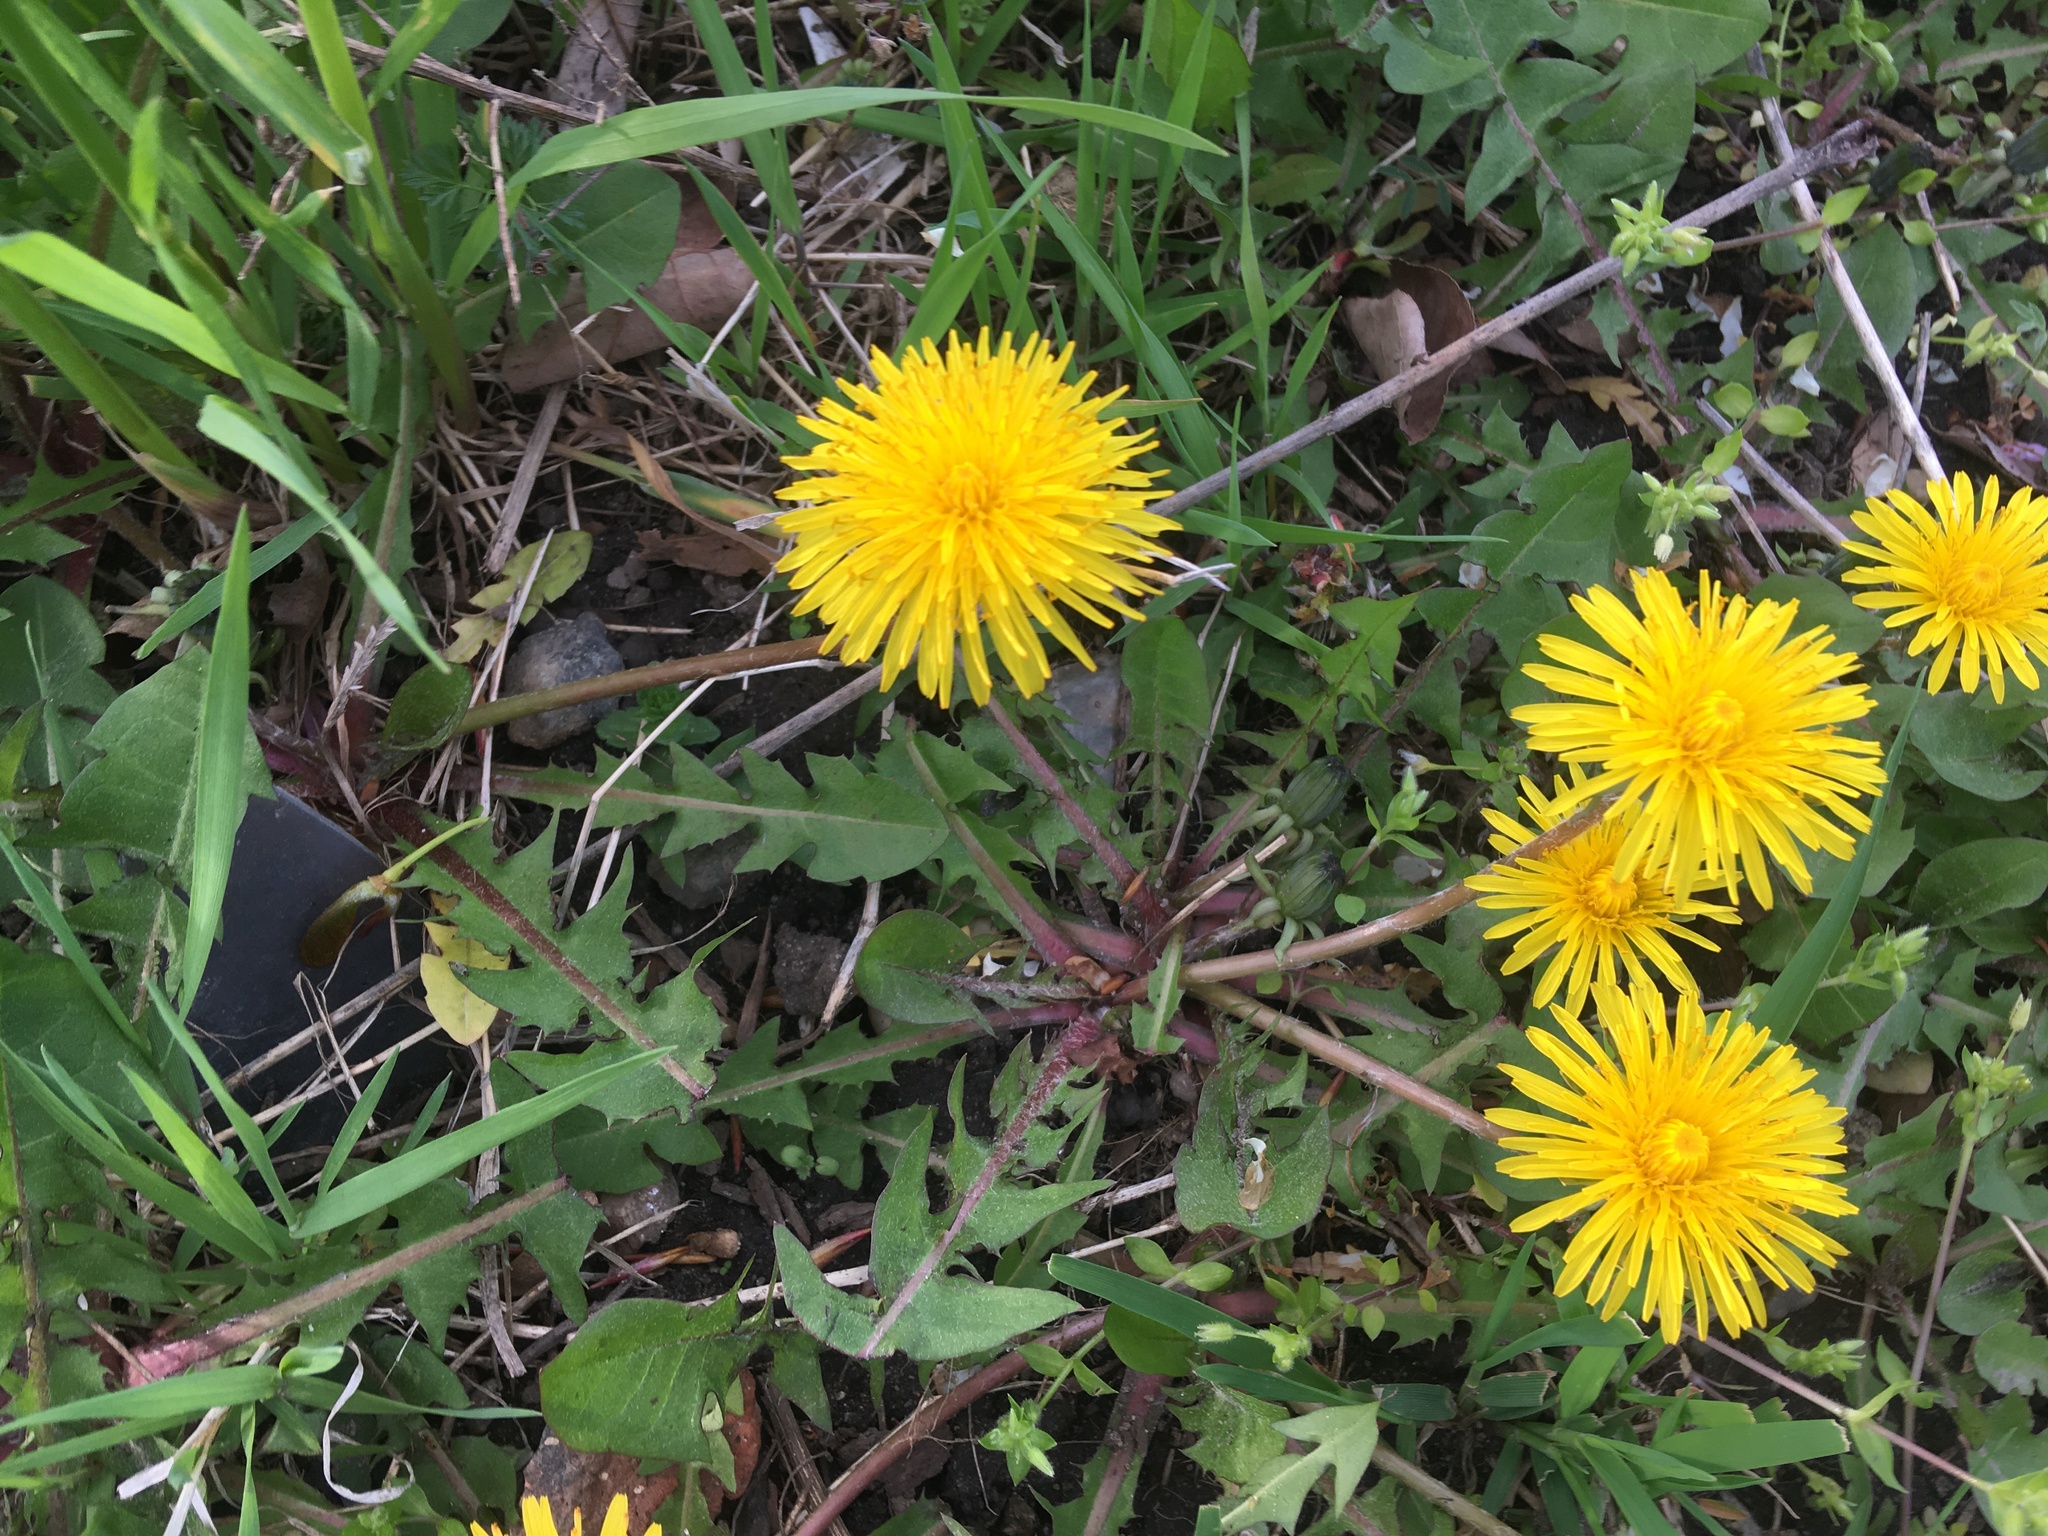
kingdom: Plantae
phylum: Tracheophyta
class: Magnoliopsida
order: Asterales
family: Asteraceae
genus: Taraxacum
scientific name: Taraxacum officinale
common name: Common dandelion
